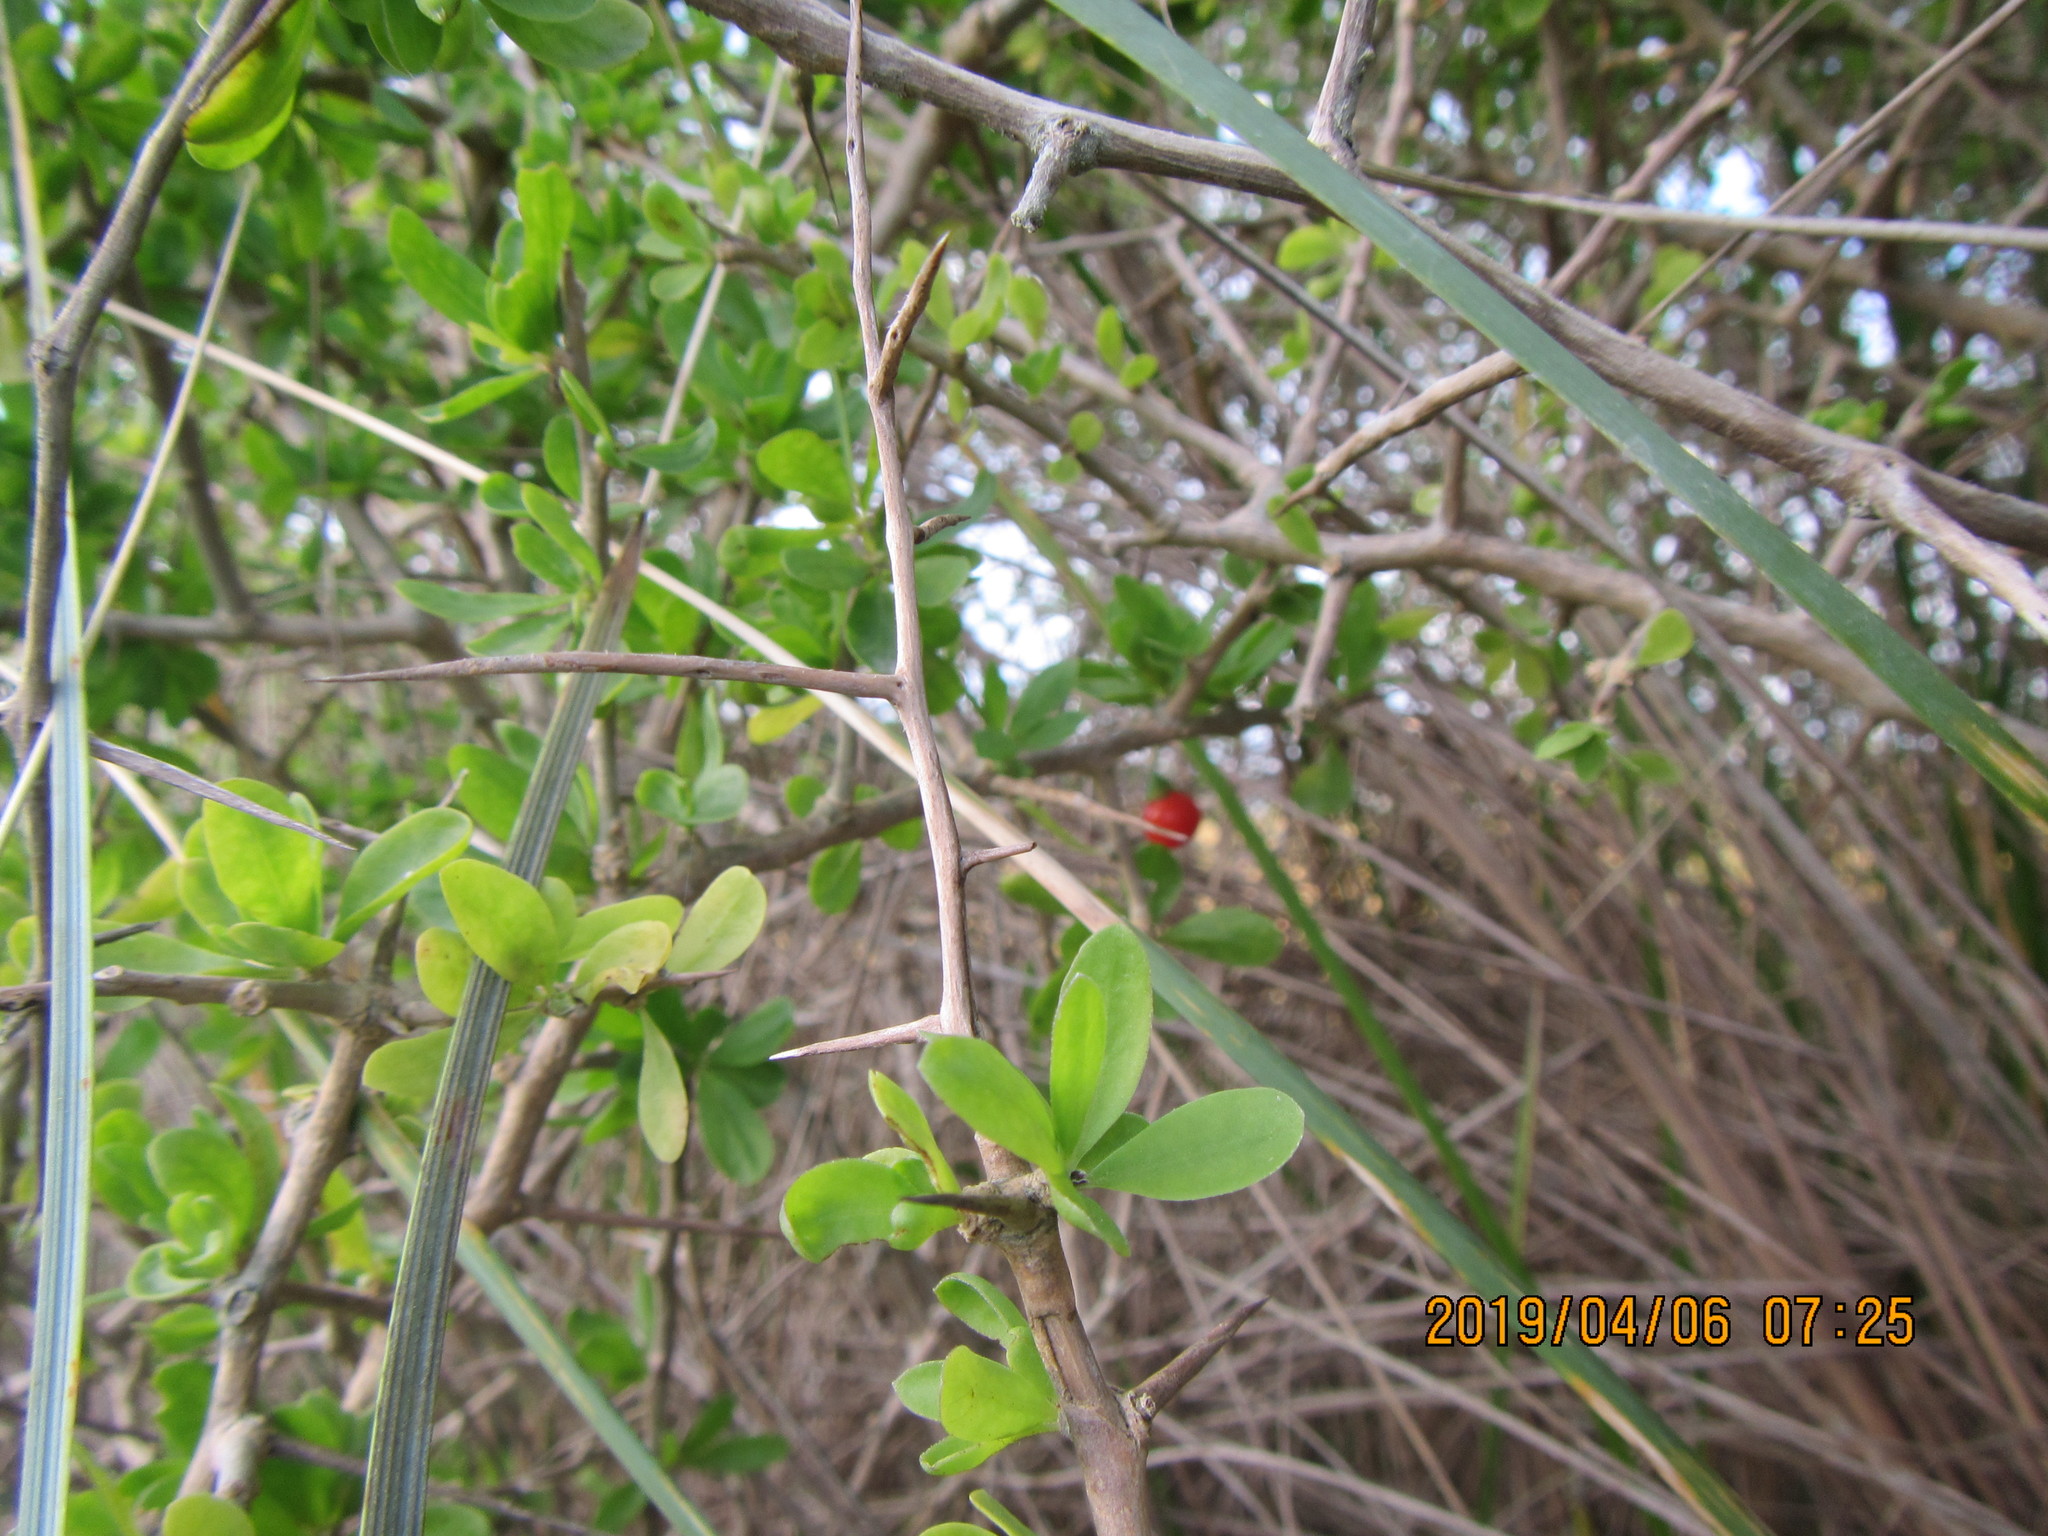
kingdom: Plantae
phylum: Tracheophyta
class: Magnoliopsida
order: Solanales
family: Solanaceae
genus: Lycium
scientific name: Lycium ferocissimum
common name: African boxthorn
